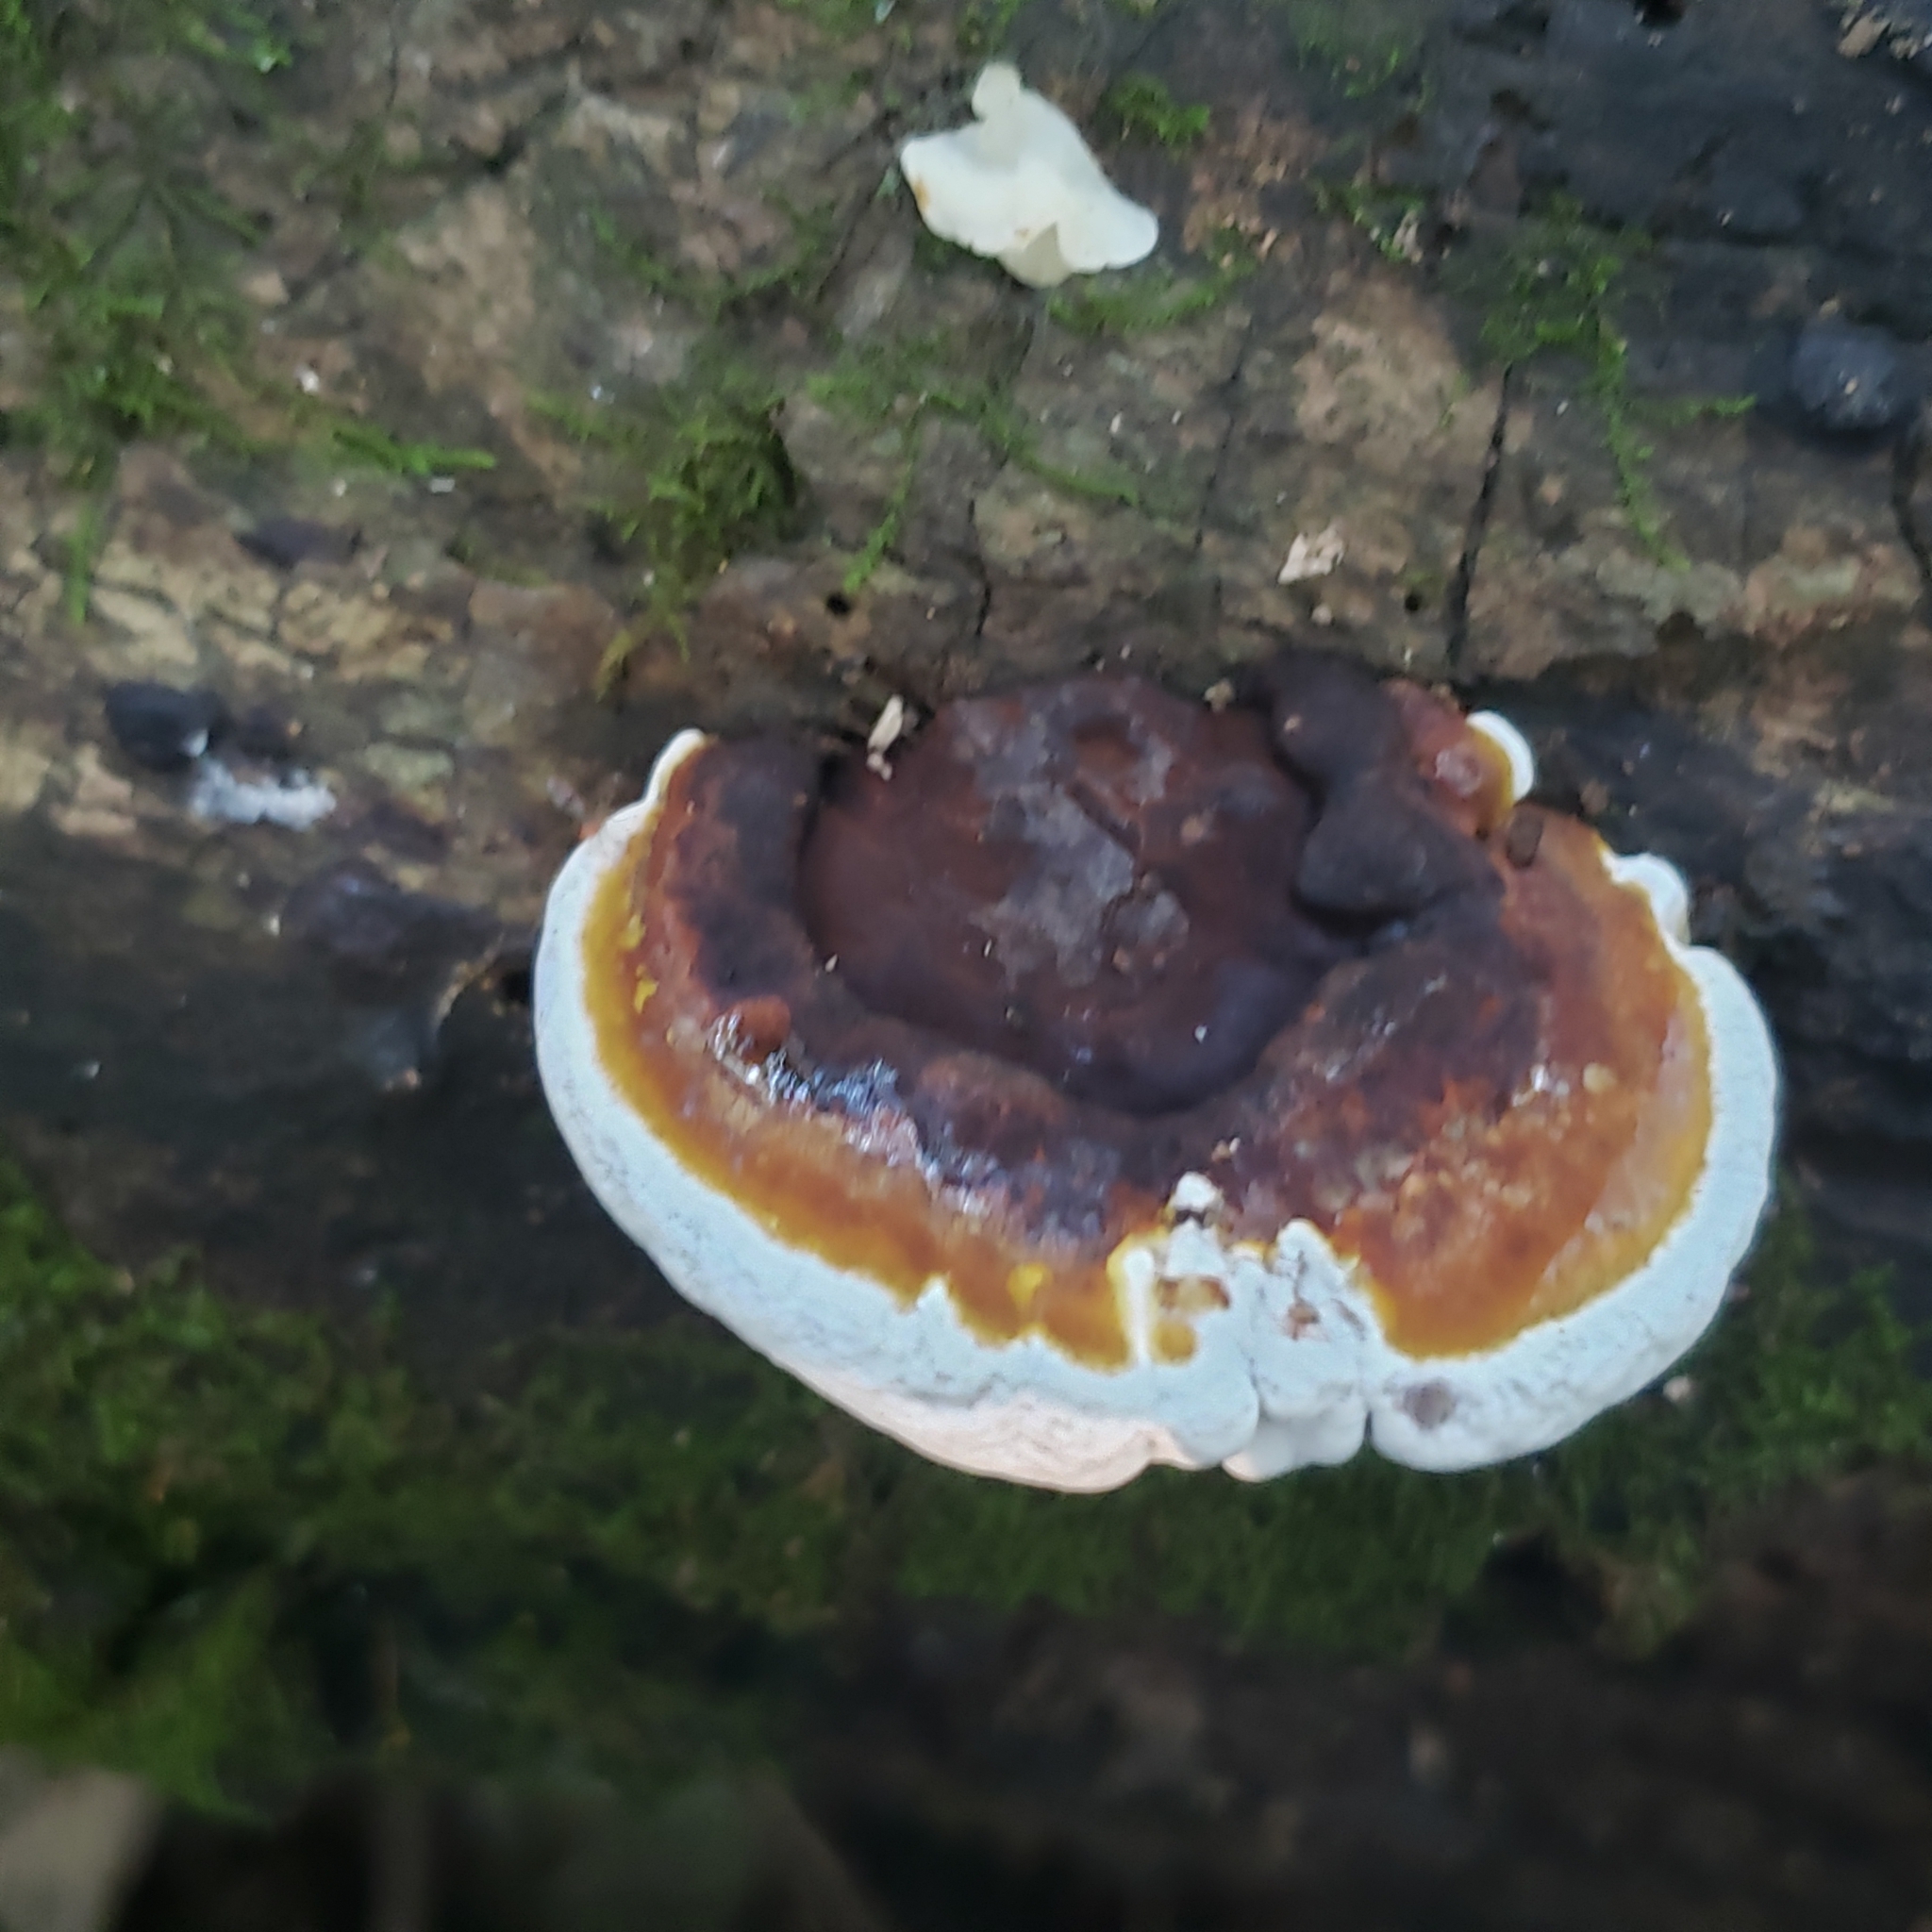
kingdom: Fungi
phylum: Basidiomycota
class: Agaricomycetes
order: Polyporales
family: Polyporaceae
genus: Ganoderma
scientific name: Ganoderma lobatum
